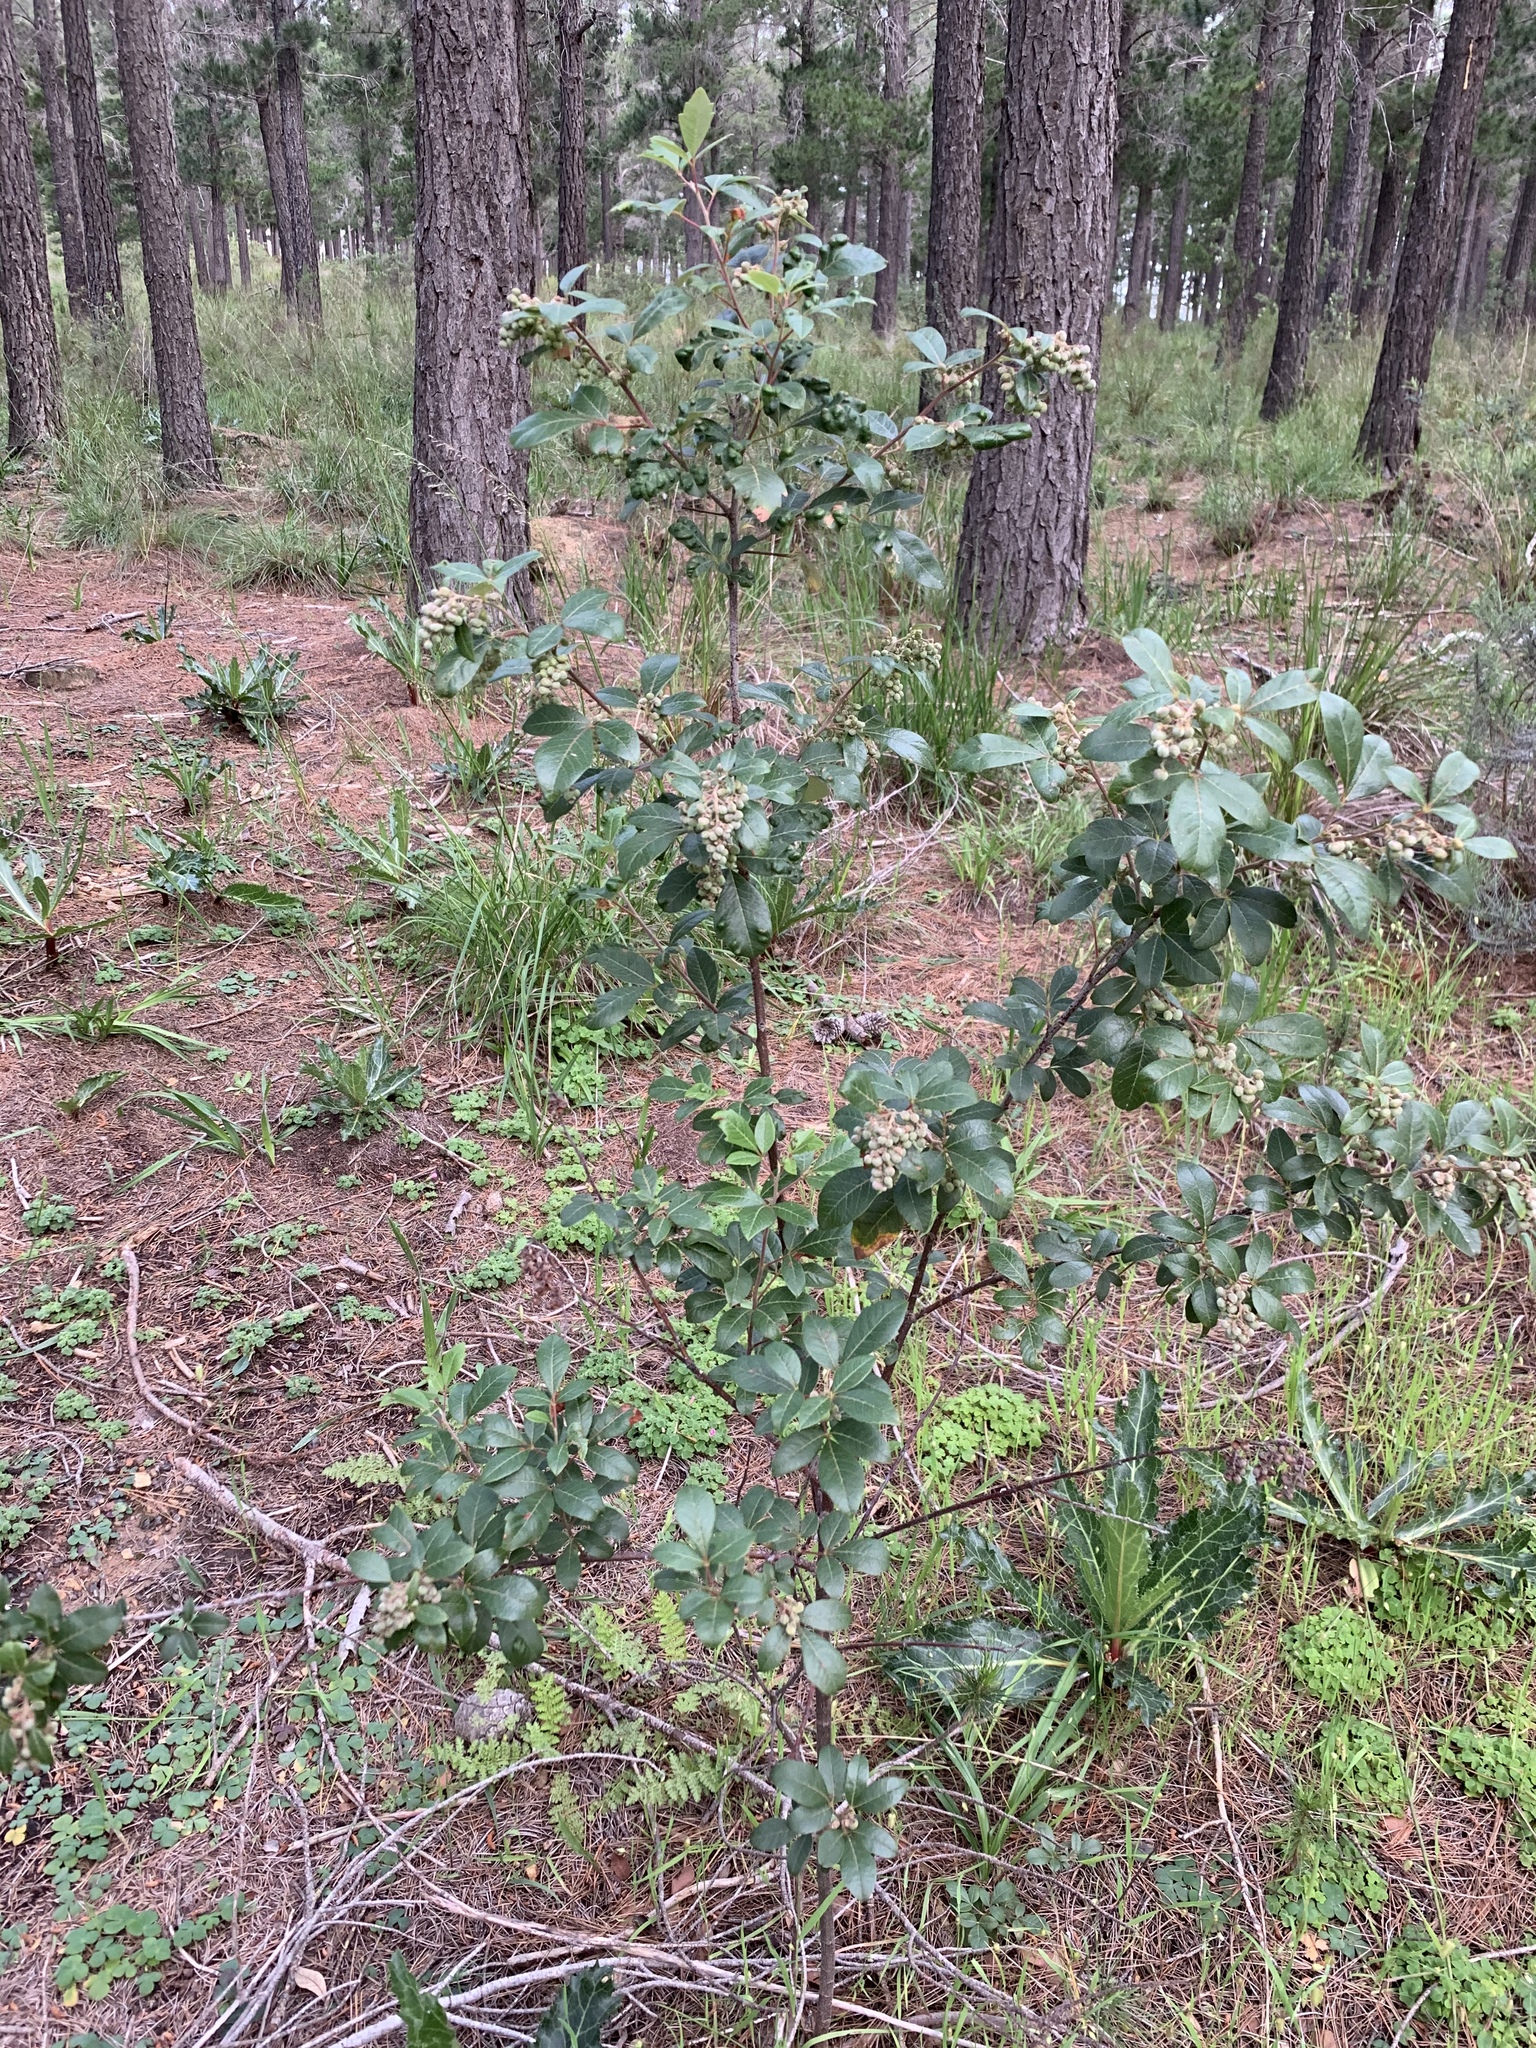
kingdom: Plantae
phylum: Tracheophyta
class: Magnoliopsida
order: Sapindales
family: Anacardiaceae
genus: Searsia
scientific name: Searsia tomentosa
